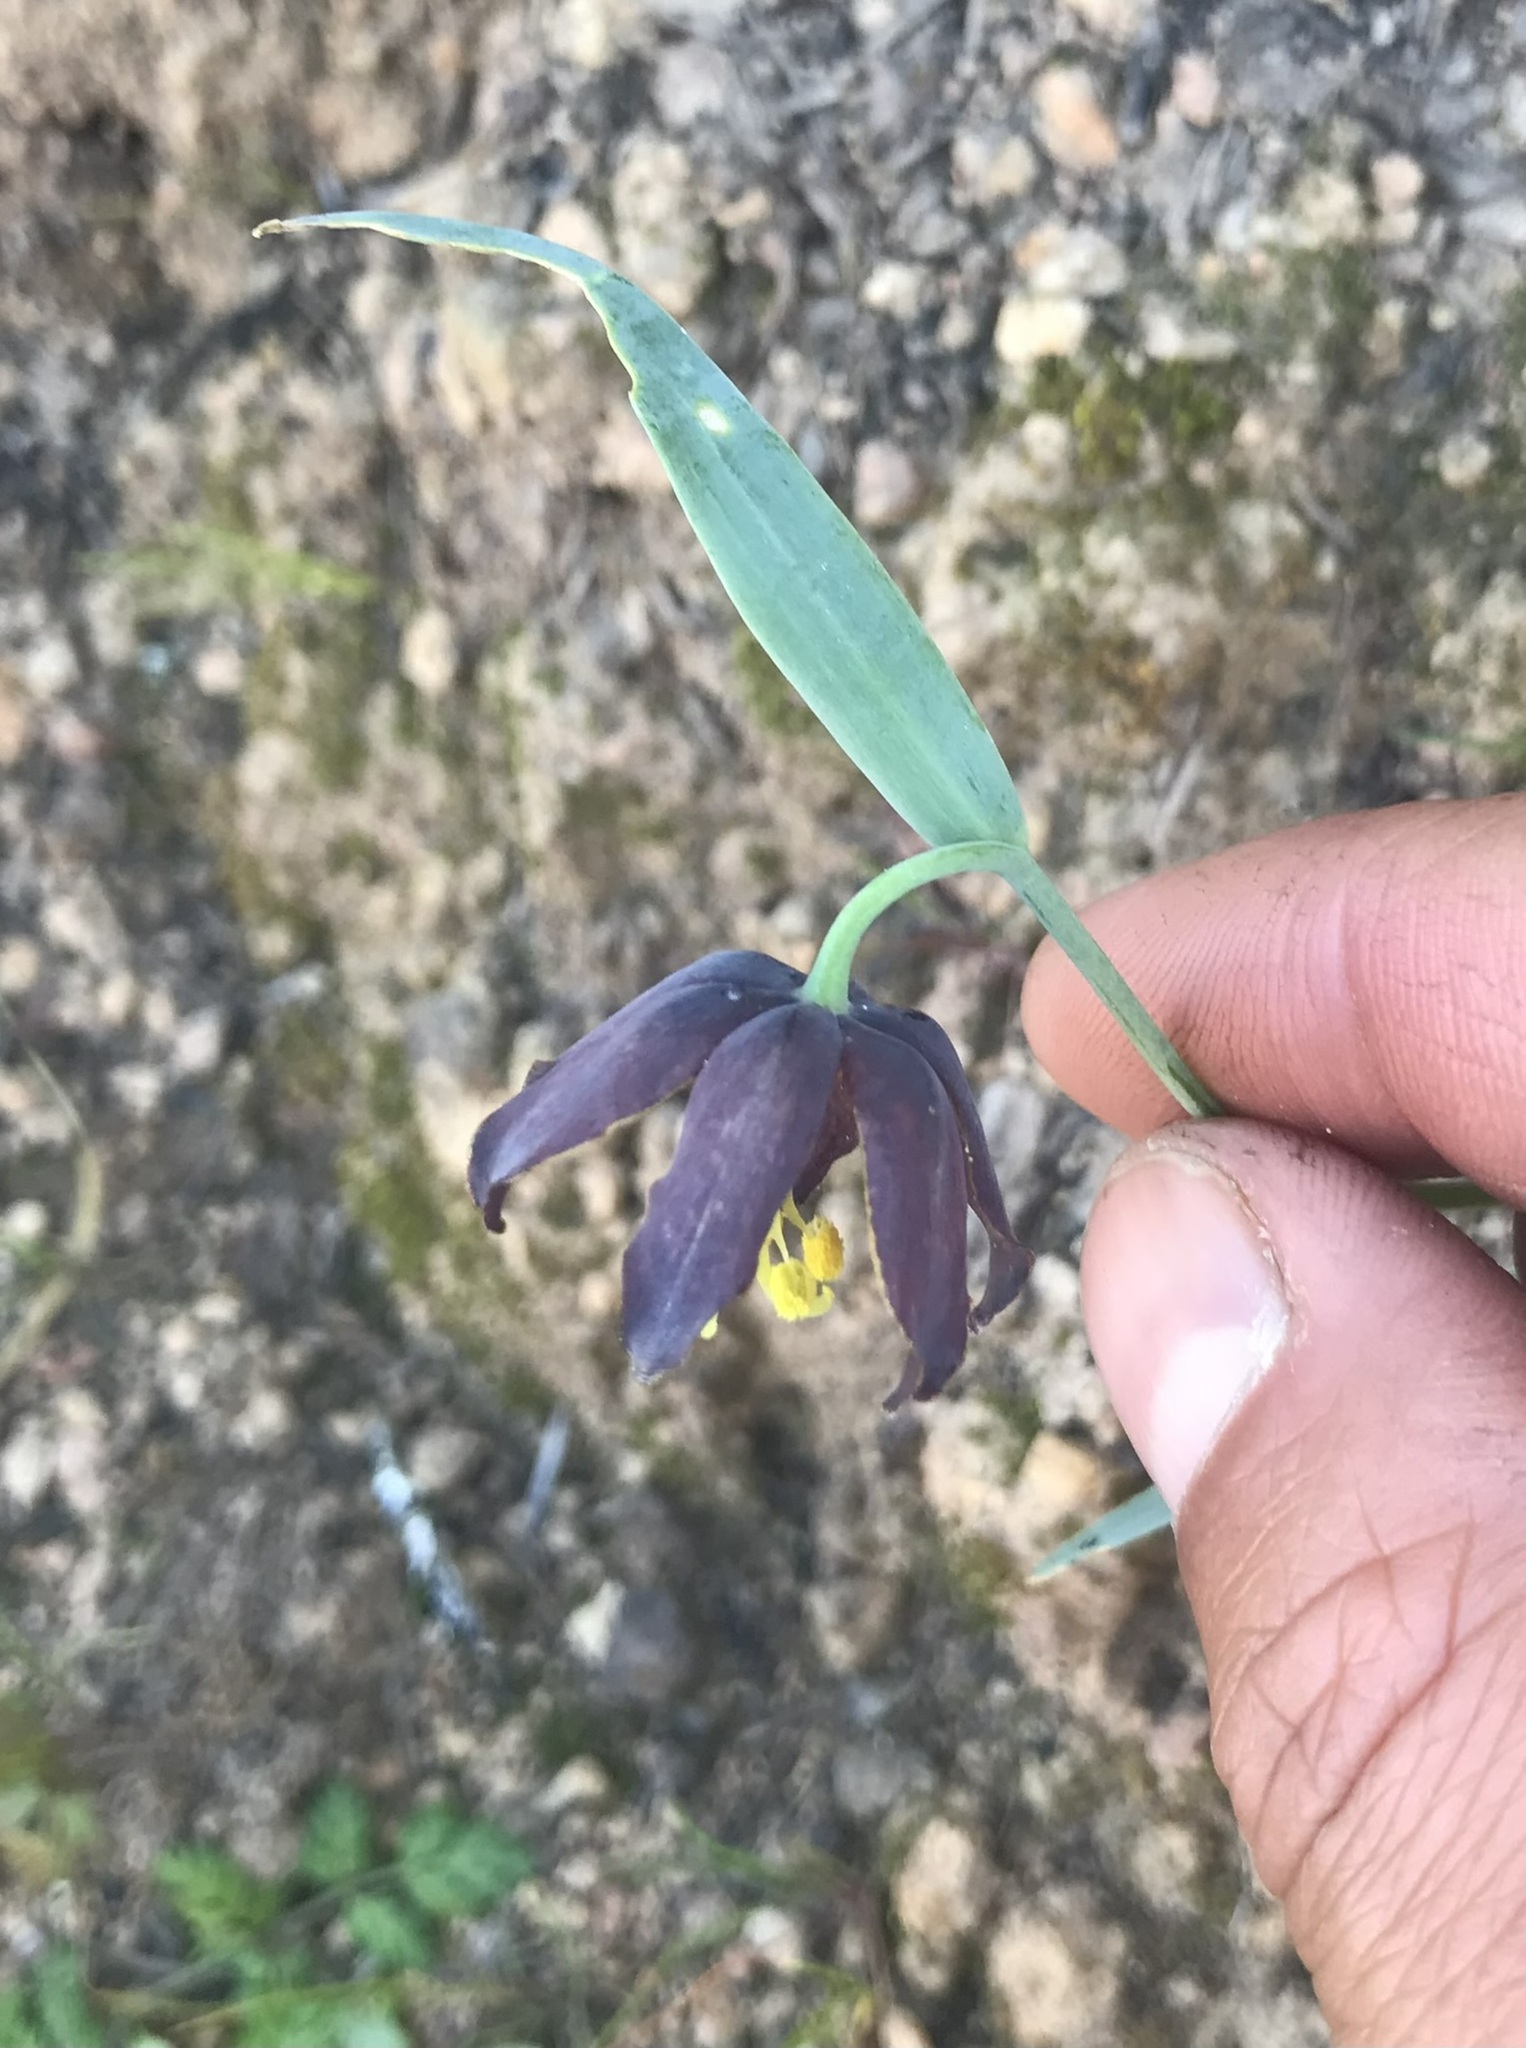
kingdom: Plantae
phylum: Tracheophyta
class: Liliopsida
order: Liliales
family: Liliaceae
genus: Fritillaria
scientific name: Fritillaria affinis
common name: Ojai fritillary
